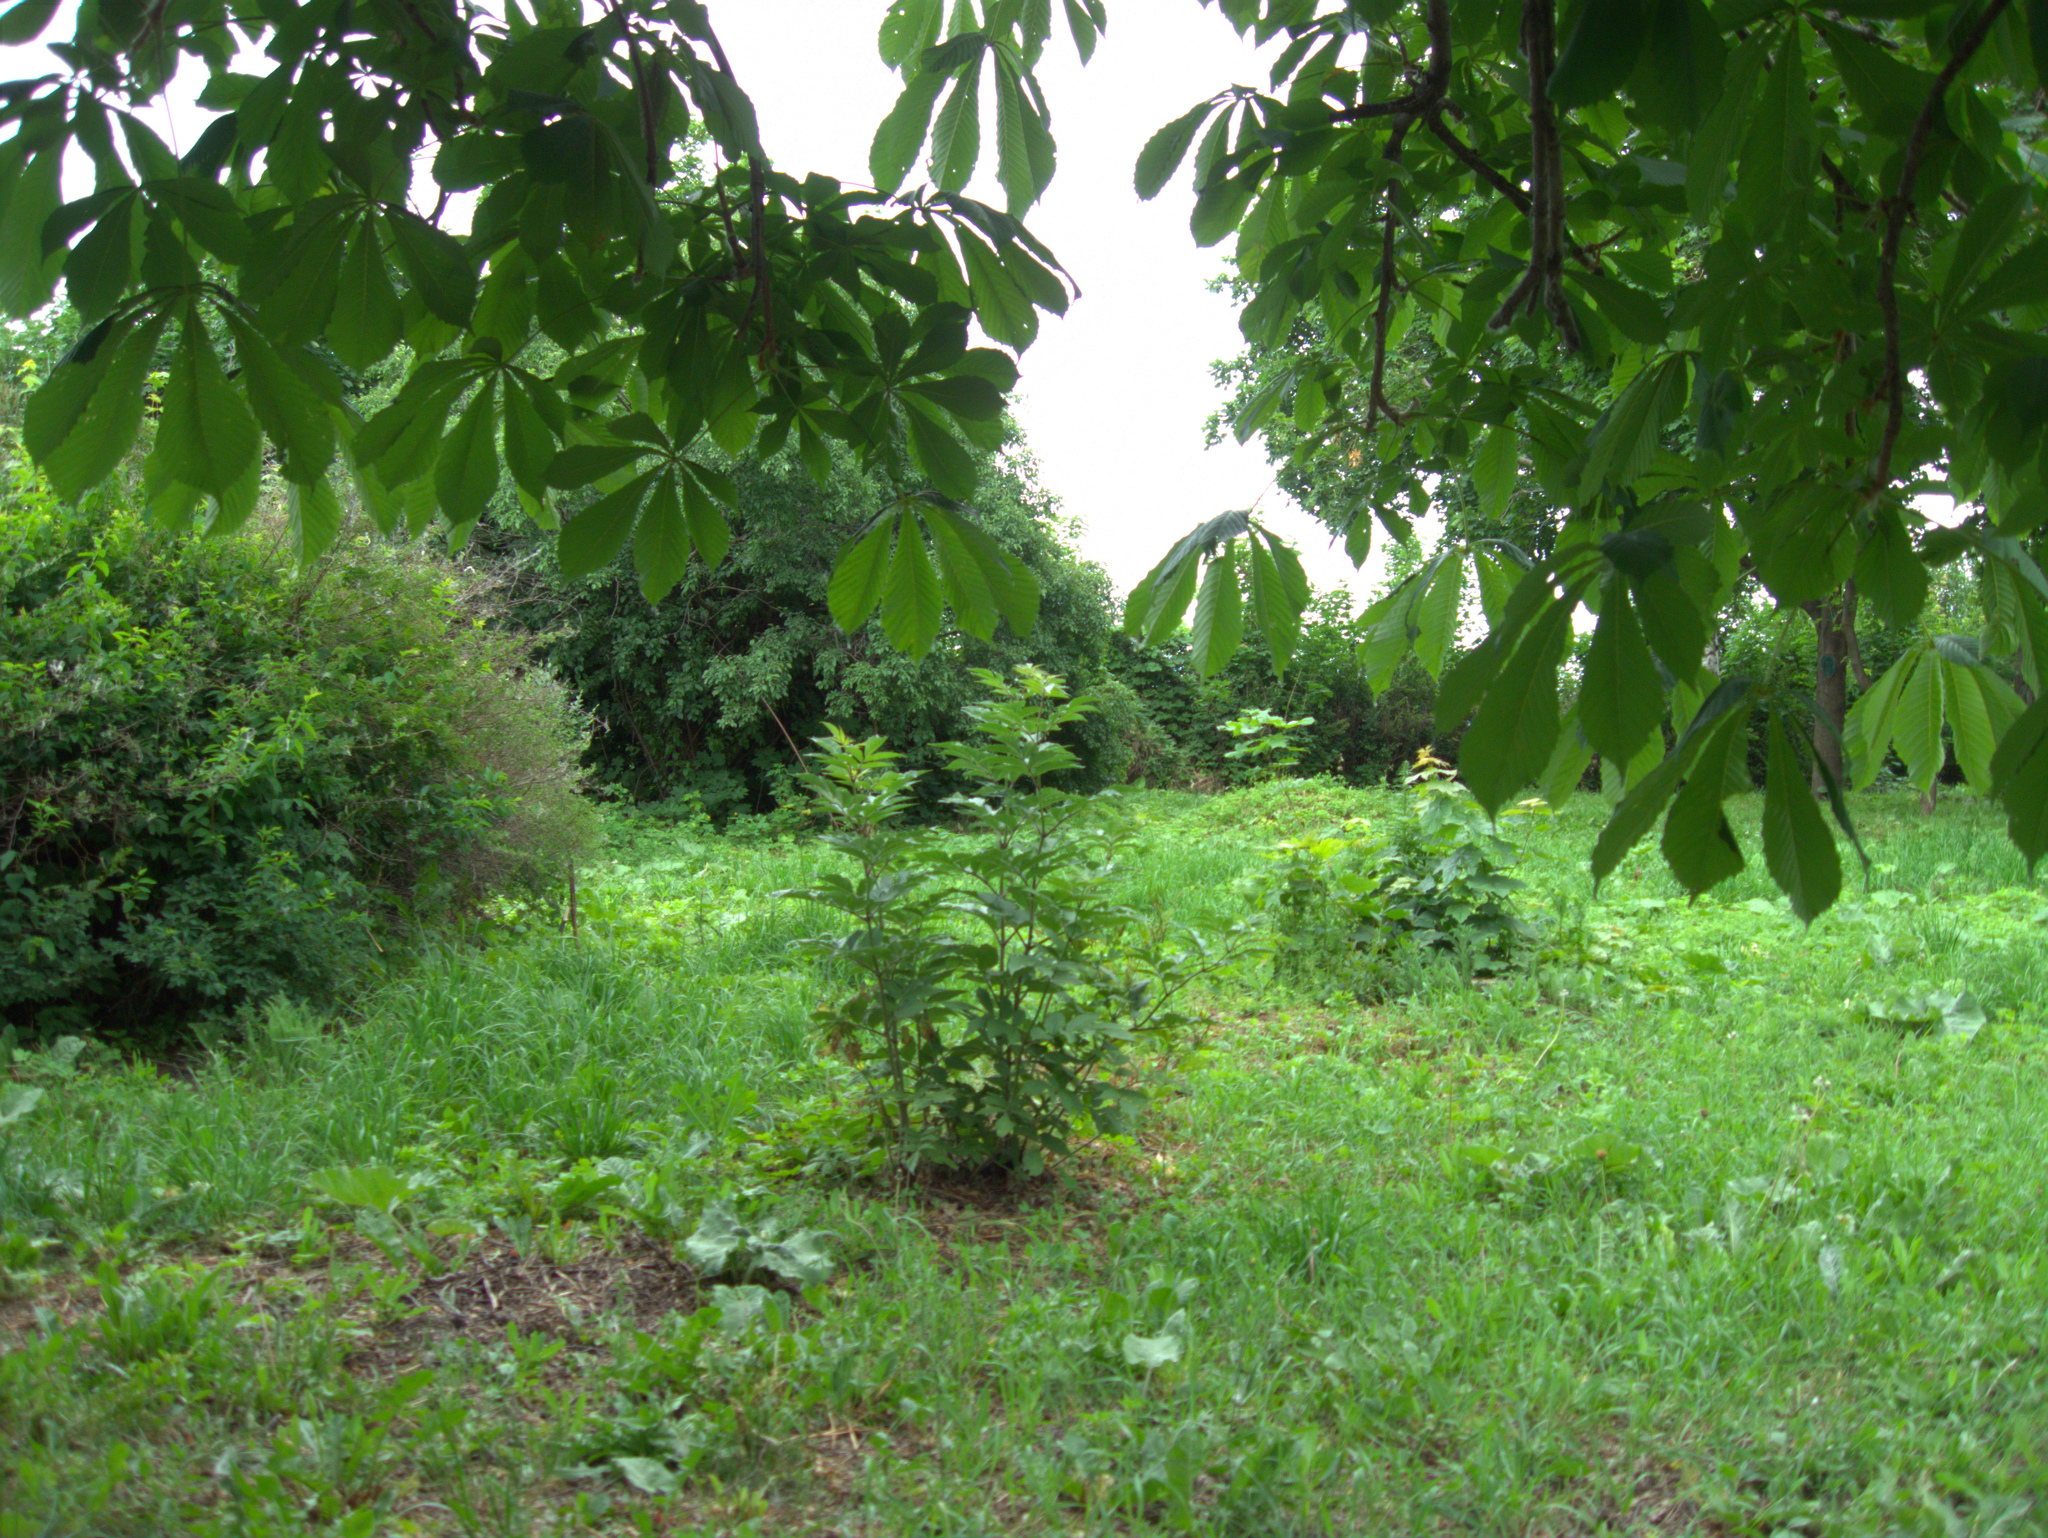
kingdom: Plantae
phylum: Tracheophyta
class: Magnoliopsida
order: Asterales
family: Asteraceae
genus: Arctium
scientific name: Arctium
